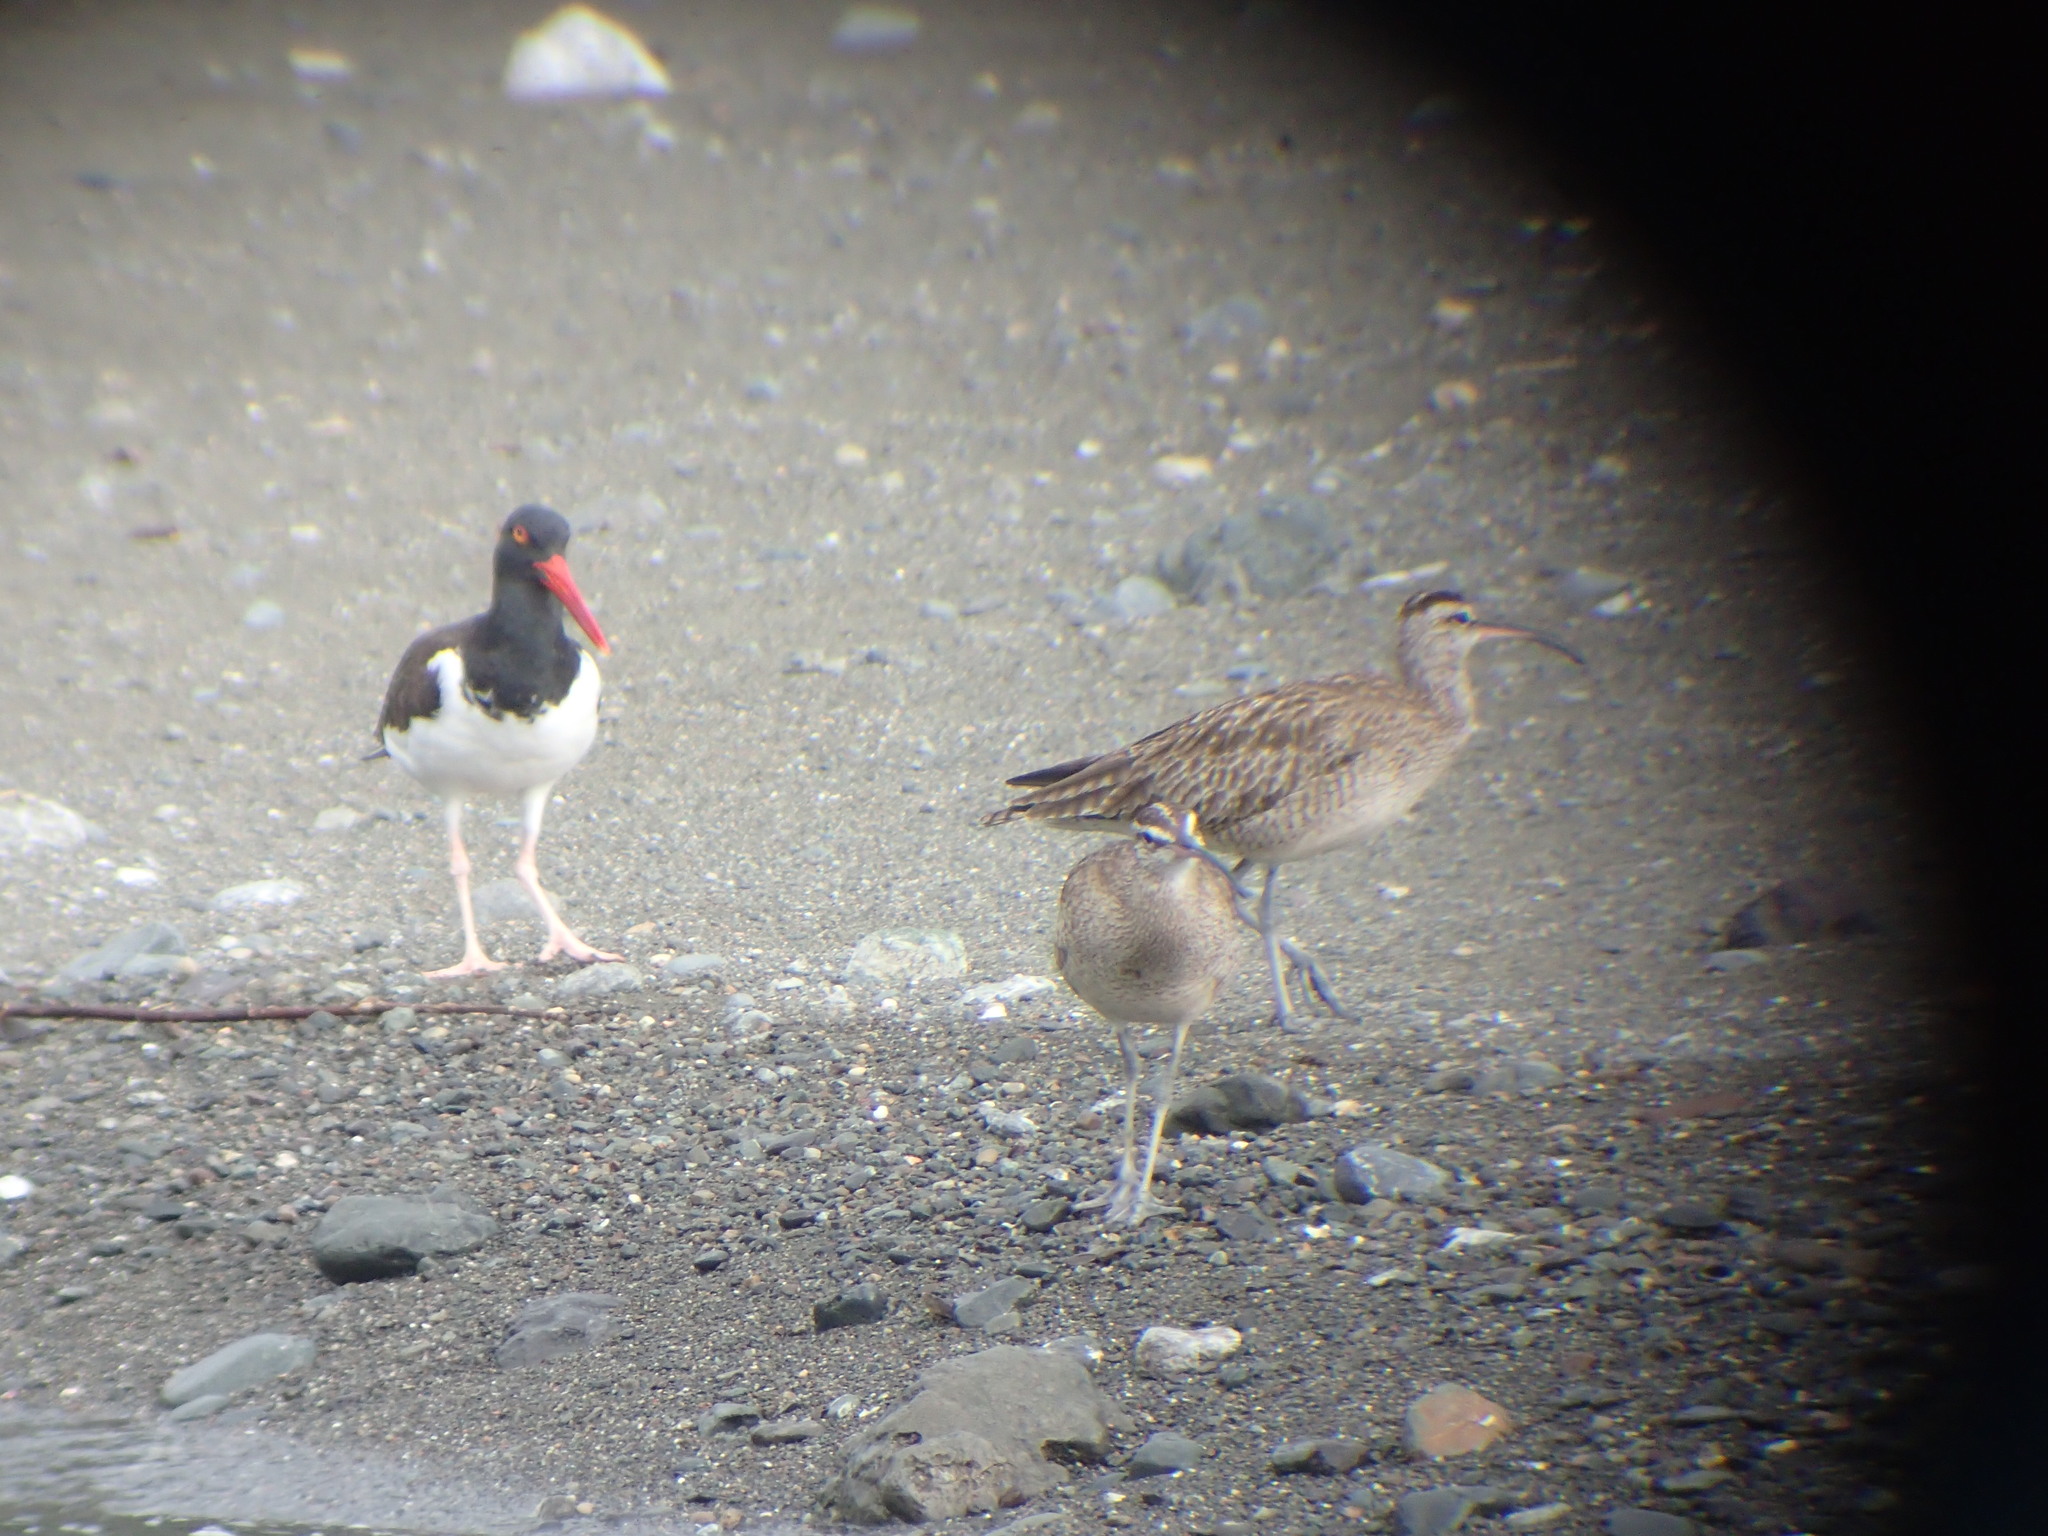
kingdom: Animalia
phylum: Chordata
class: Aves
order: Charadriiformes
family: Haematopodidae
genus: Haematopus
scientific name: Haematopus palliatus
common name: American oystercatcher
